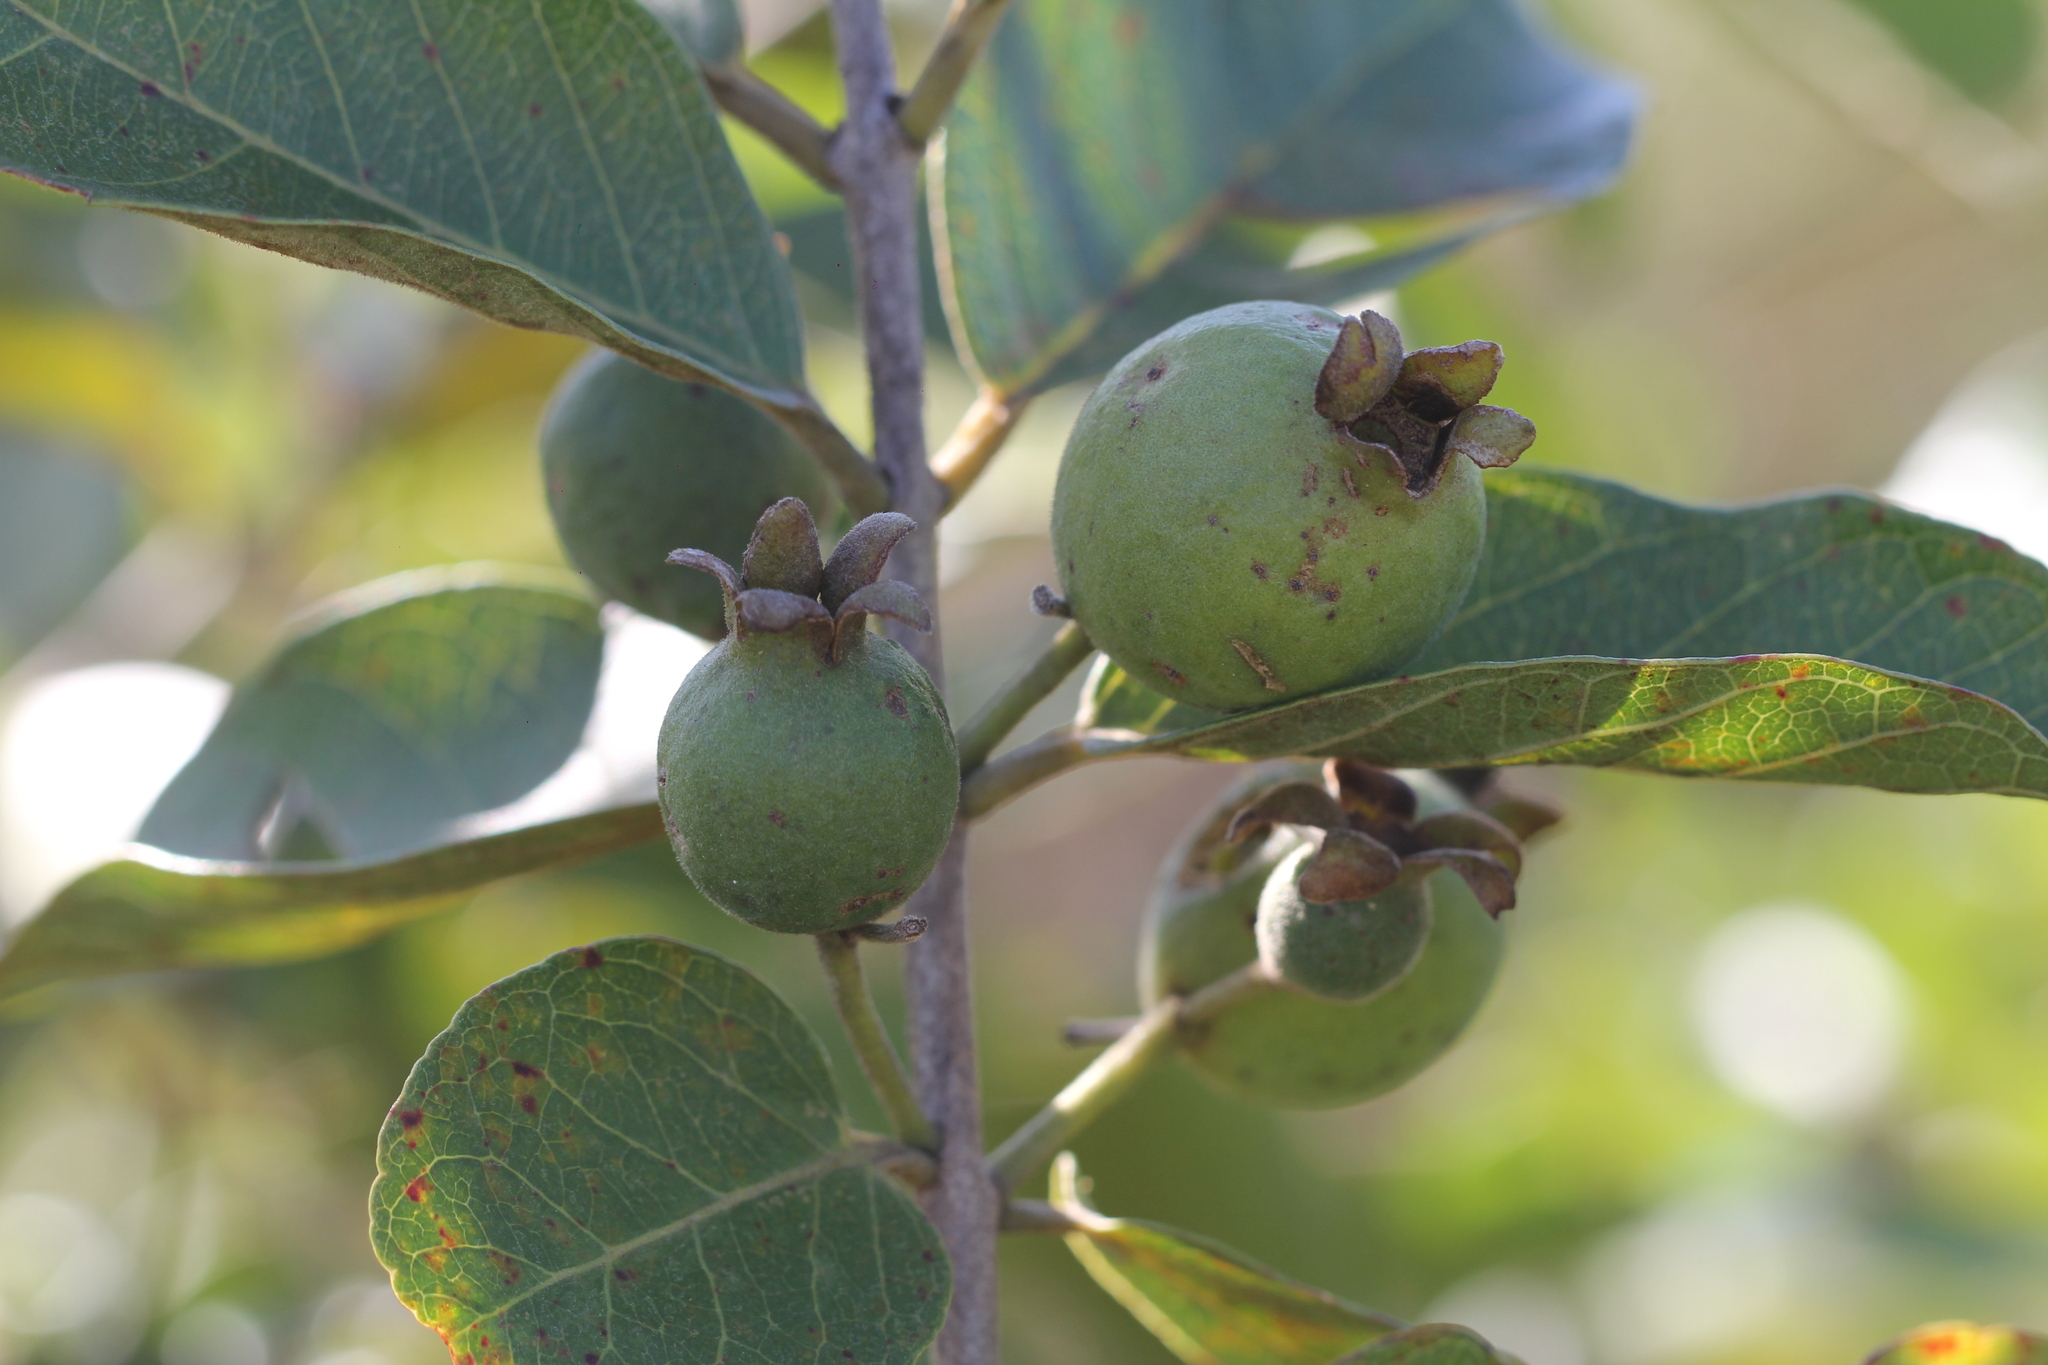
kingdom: Plantae
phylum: Tracheophyta
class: Magnoliopsida
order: Myrtales
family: Myrtaceae
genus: Psidium
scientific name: Psidium guineense
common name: Brazilian guava
